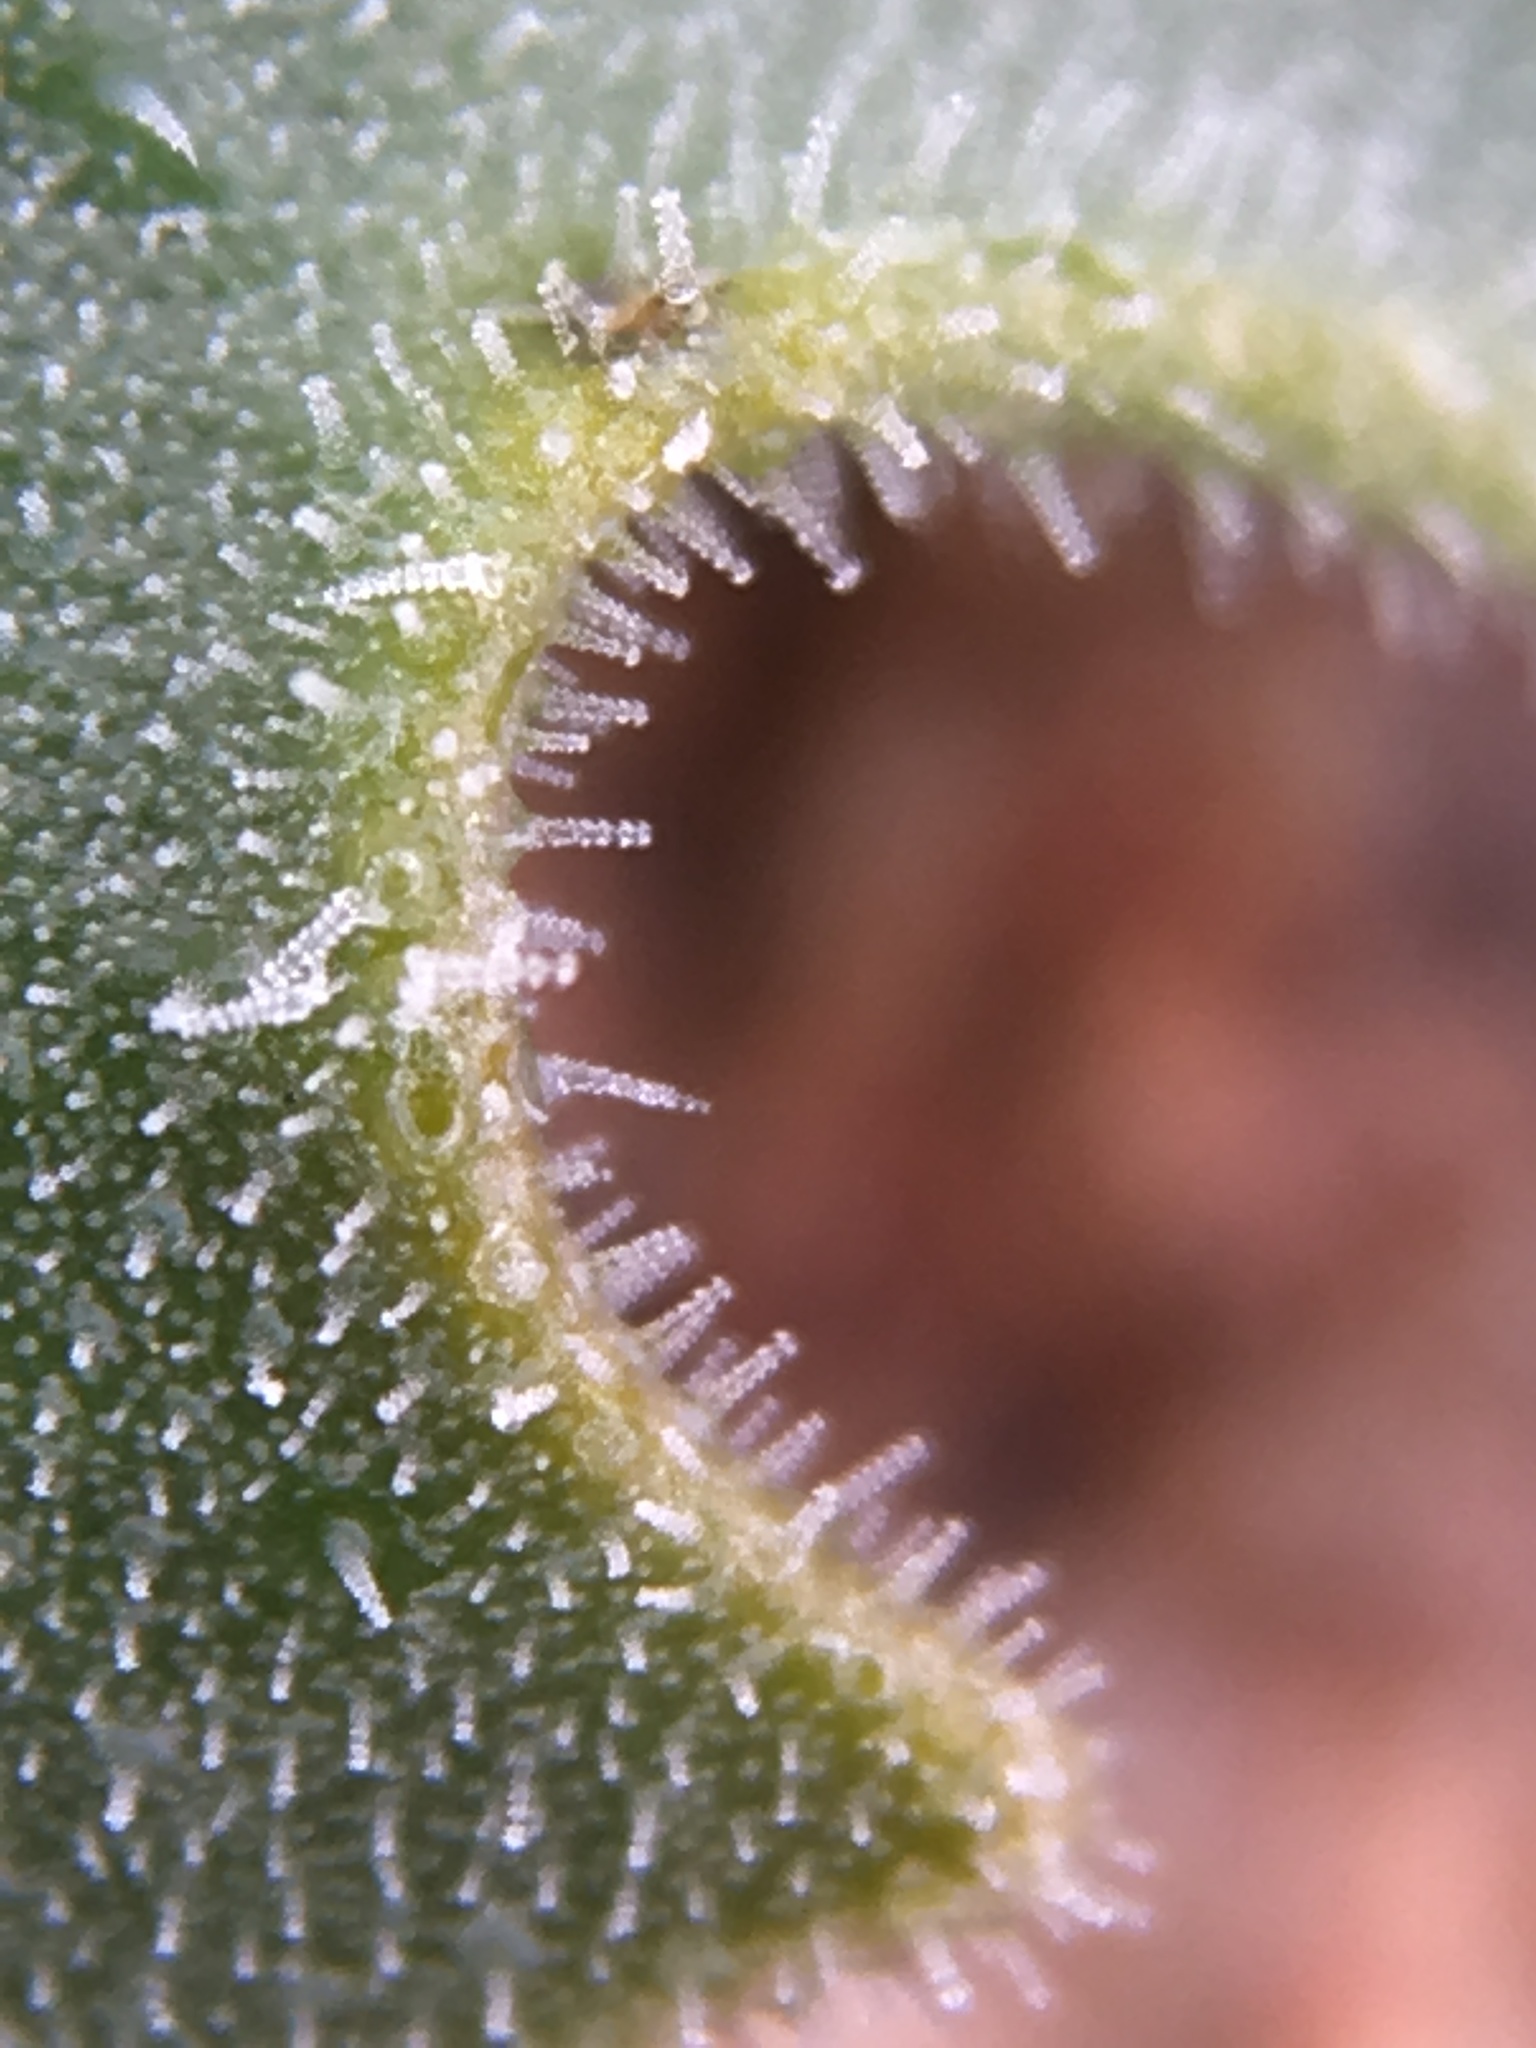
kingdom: Plantae
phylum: Tracheophyta
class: Magnoliopsida
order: Cornales
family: Loasaceae
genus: Mentzelia
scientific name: Mentzelia puberula
